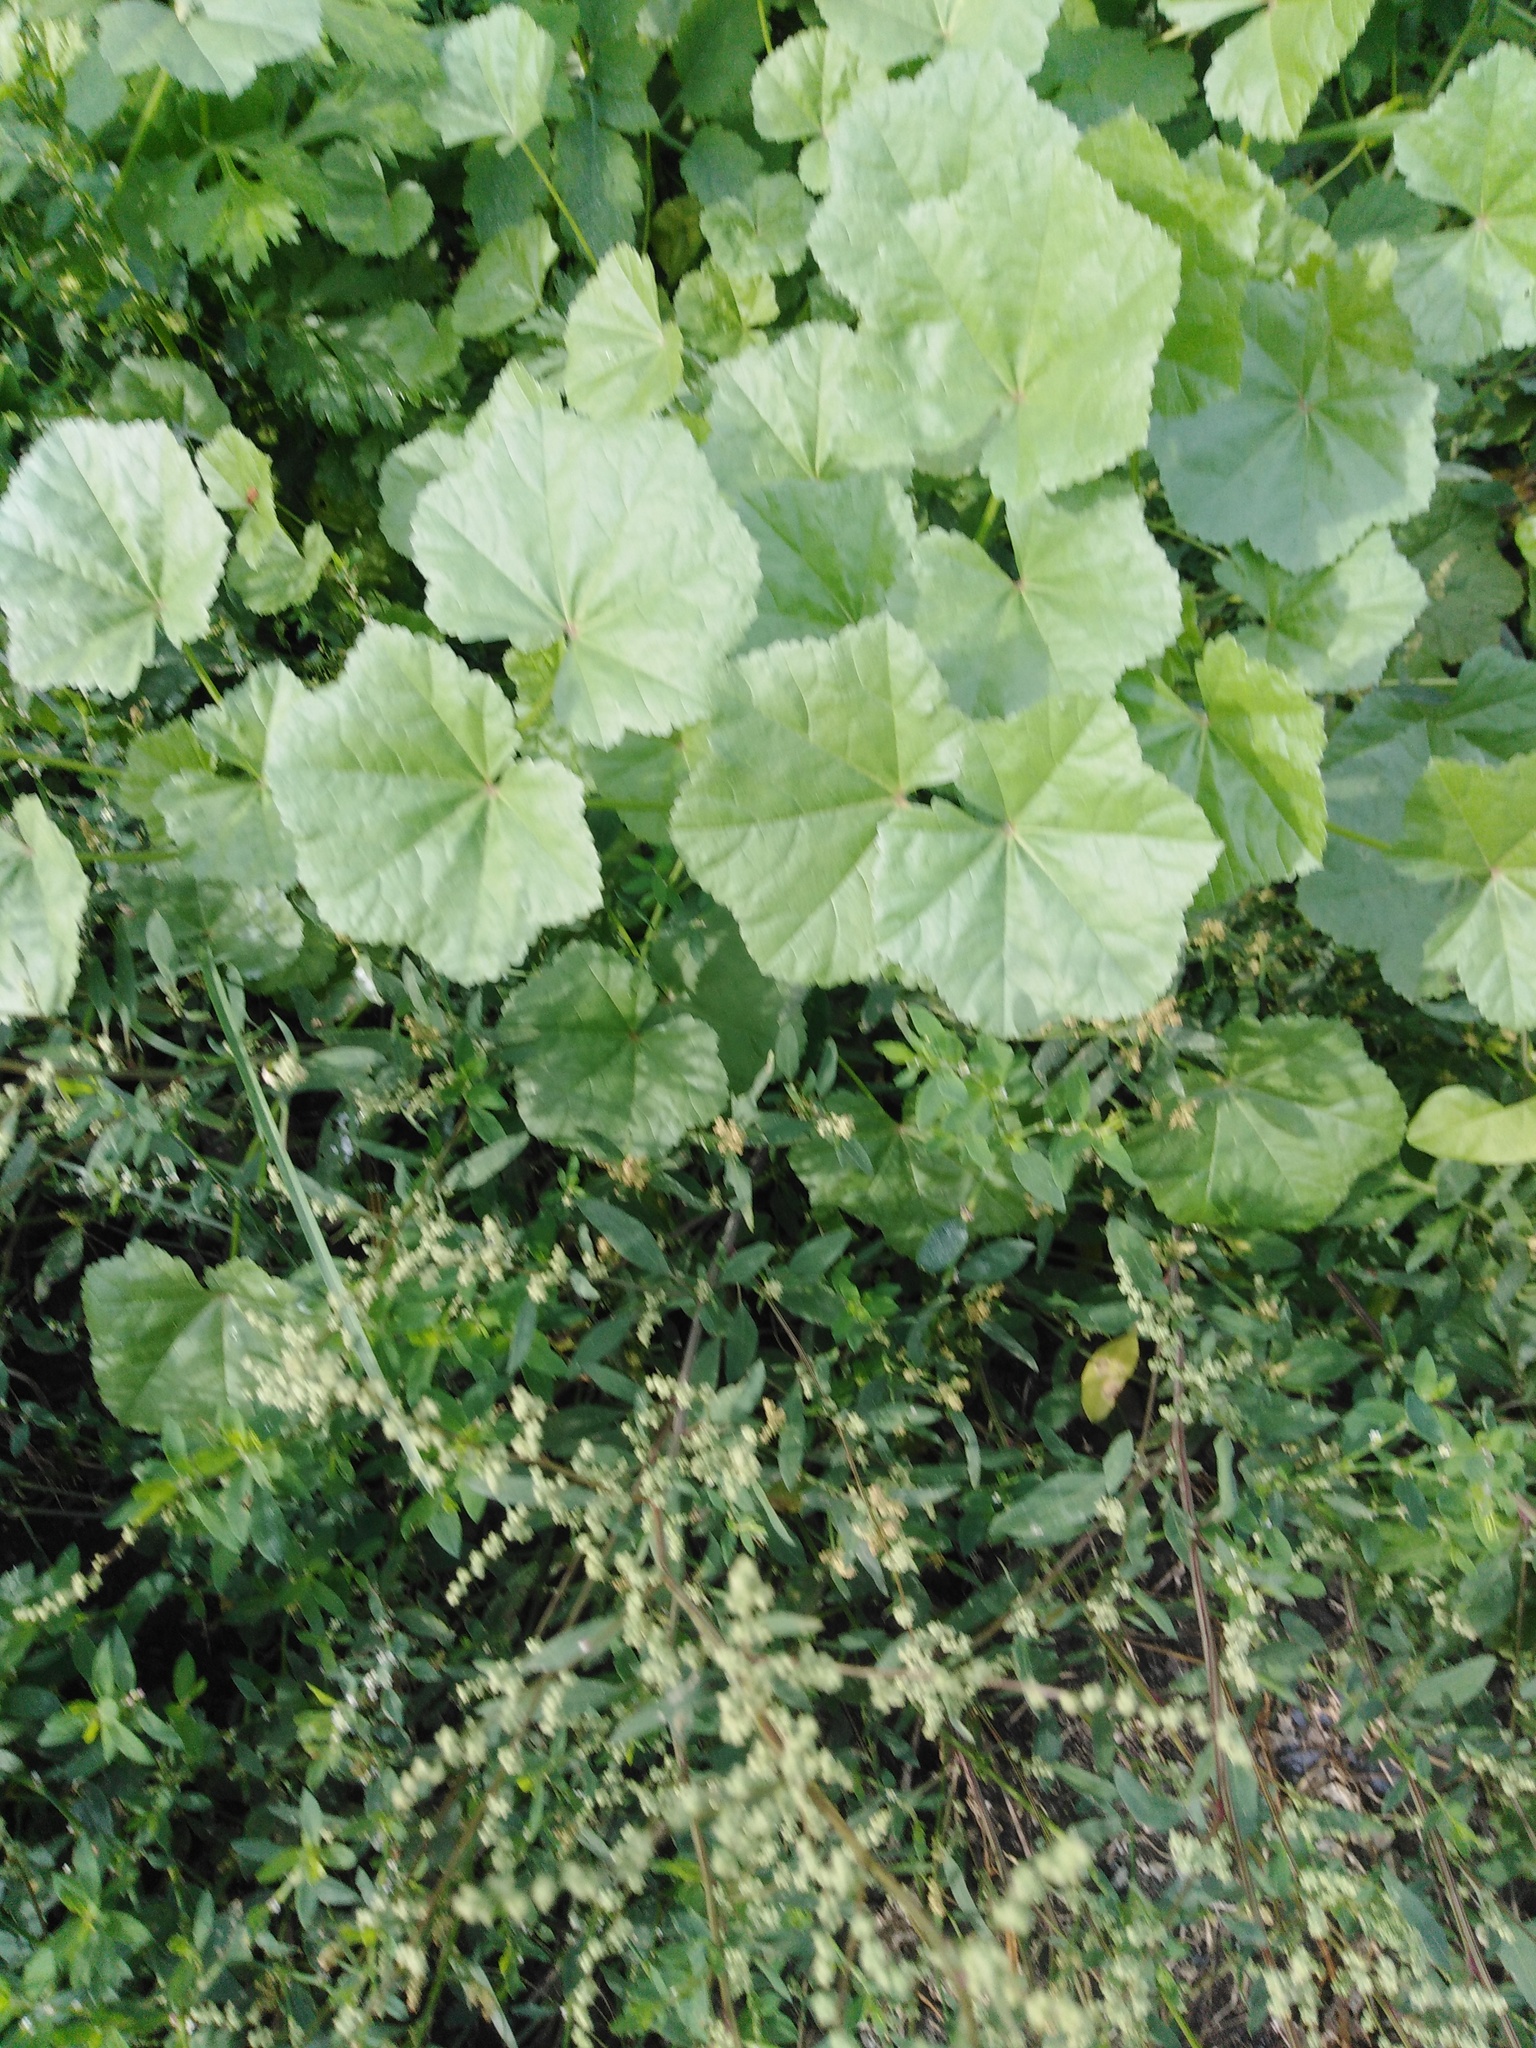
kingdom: Plantae
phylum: Tracheophyta
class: Magnoliopsida
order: Malvales
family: Malvaceae
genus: Malva
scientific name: Malva pusilla
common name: Small mallow
